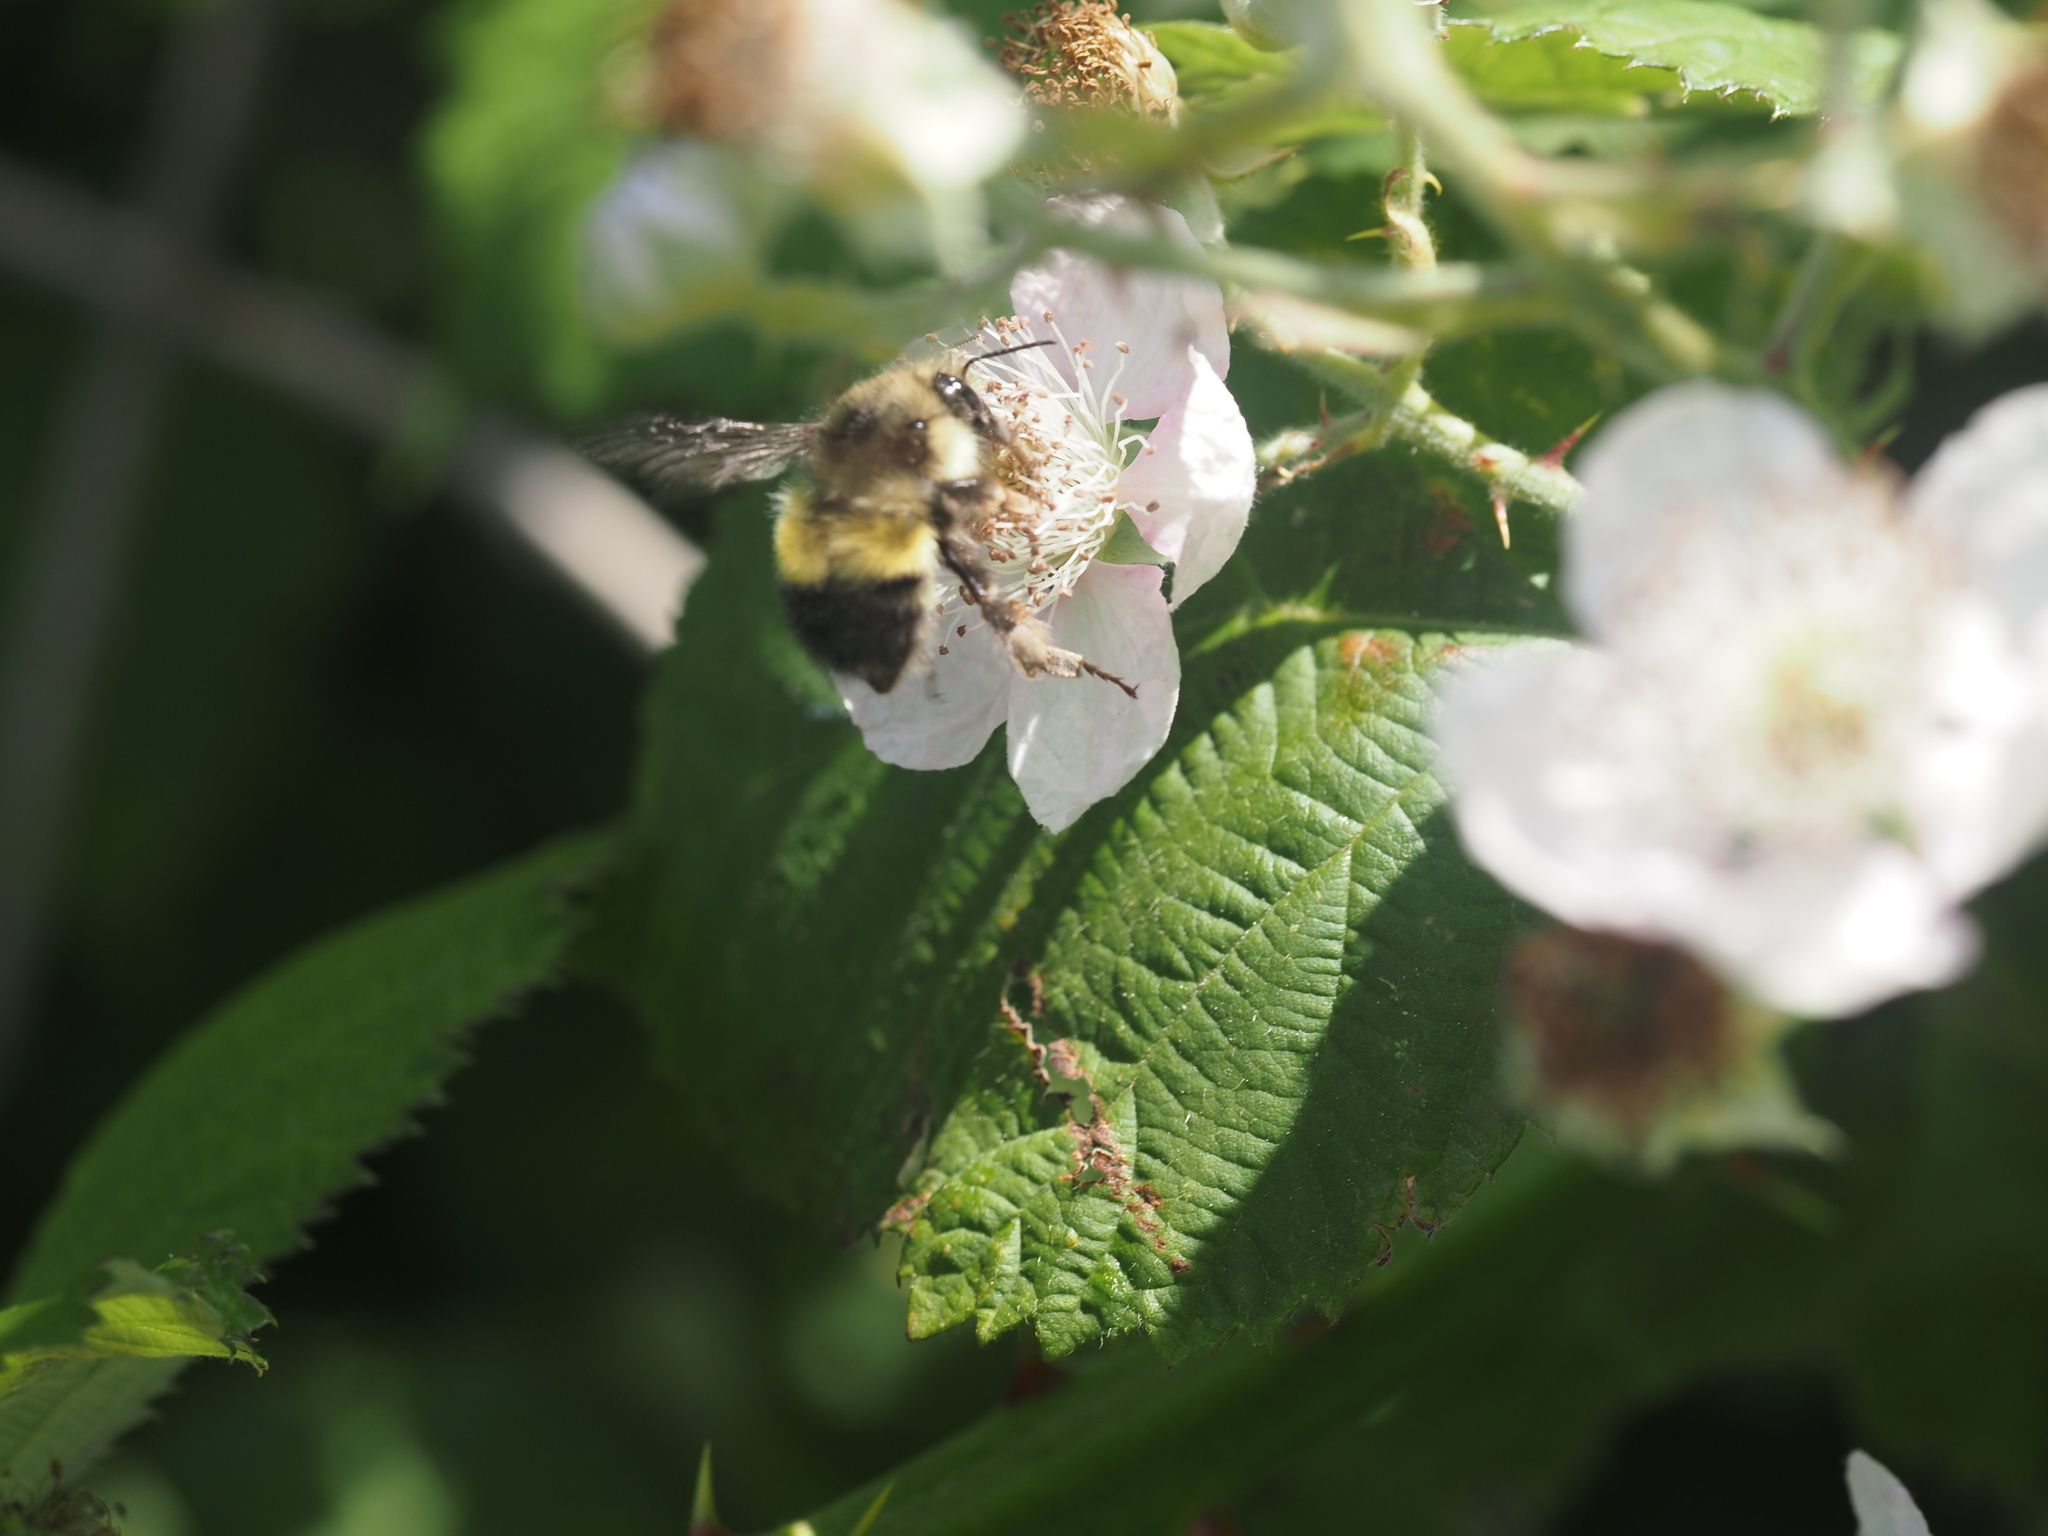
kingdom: Animalia
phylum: Arthropoda
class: Insecta
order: Hymenoptera
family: Apidae
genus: Bombus
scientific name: Bombus flavifrons
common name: Yellow head bumble bee
